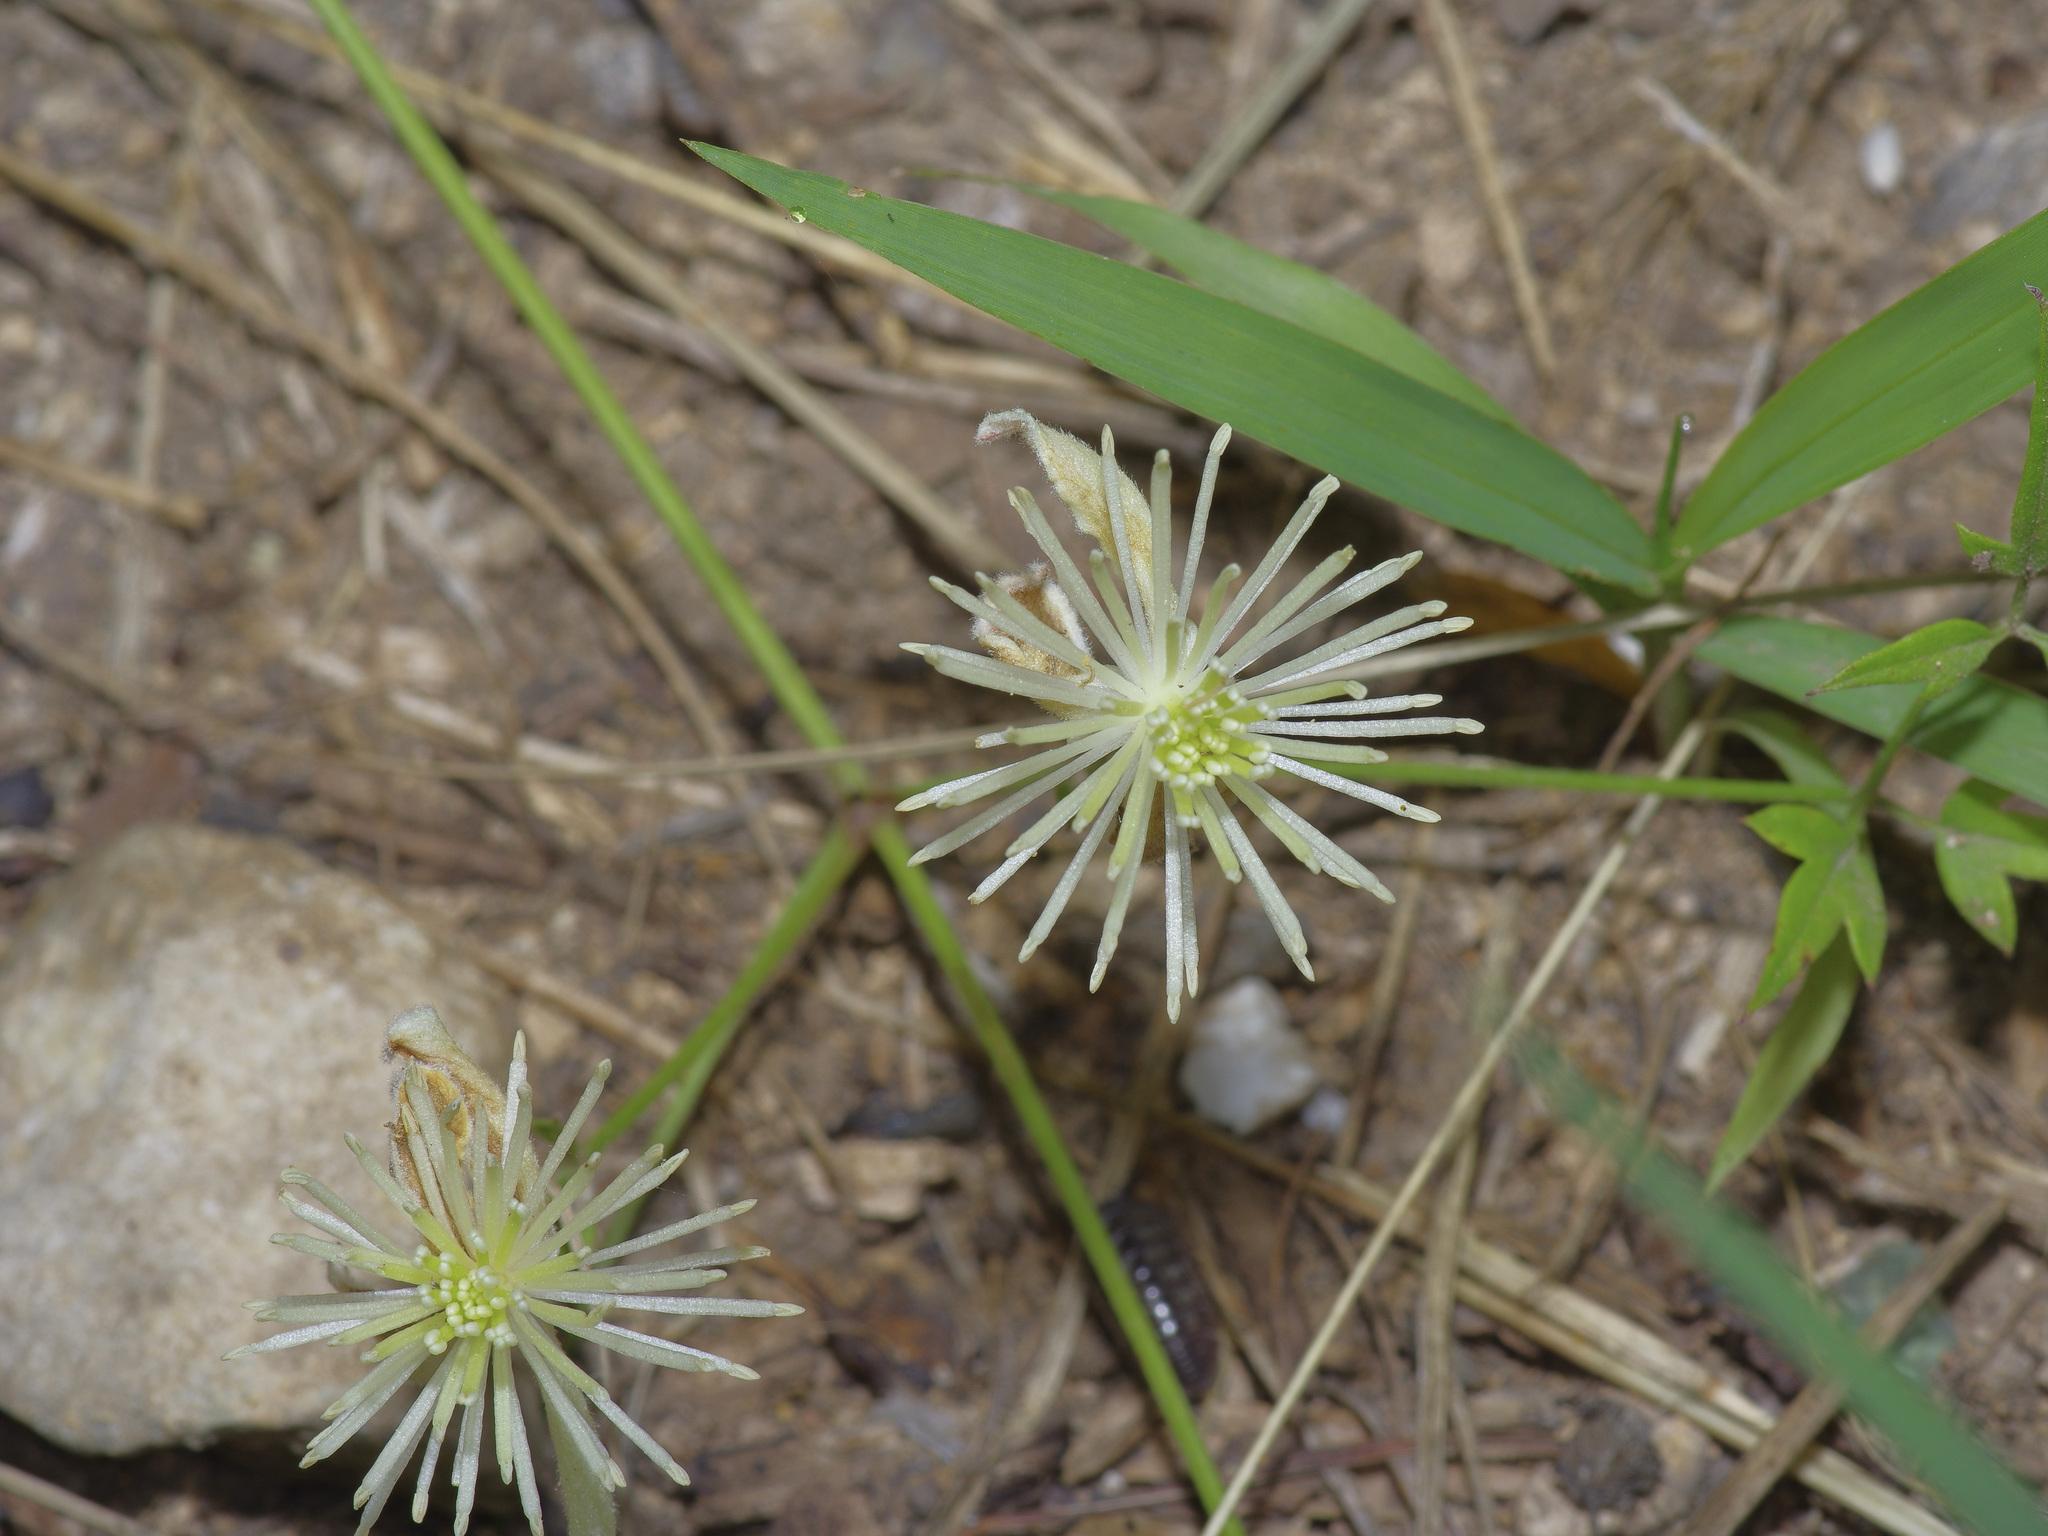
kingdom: Plantae
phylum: Tracheophyta
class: Magnoliopsida
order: Ranunculales
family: Ranunculaceae
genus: Clematis
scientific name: Clematis drummondii
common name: Texas virgin's bower
